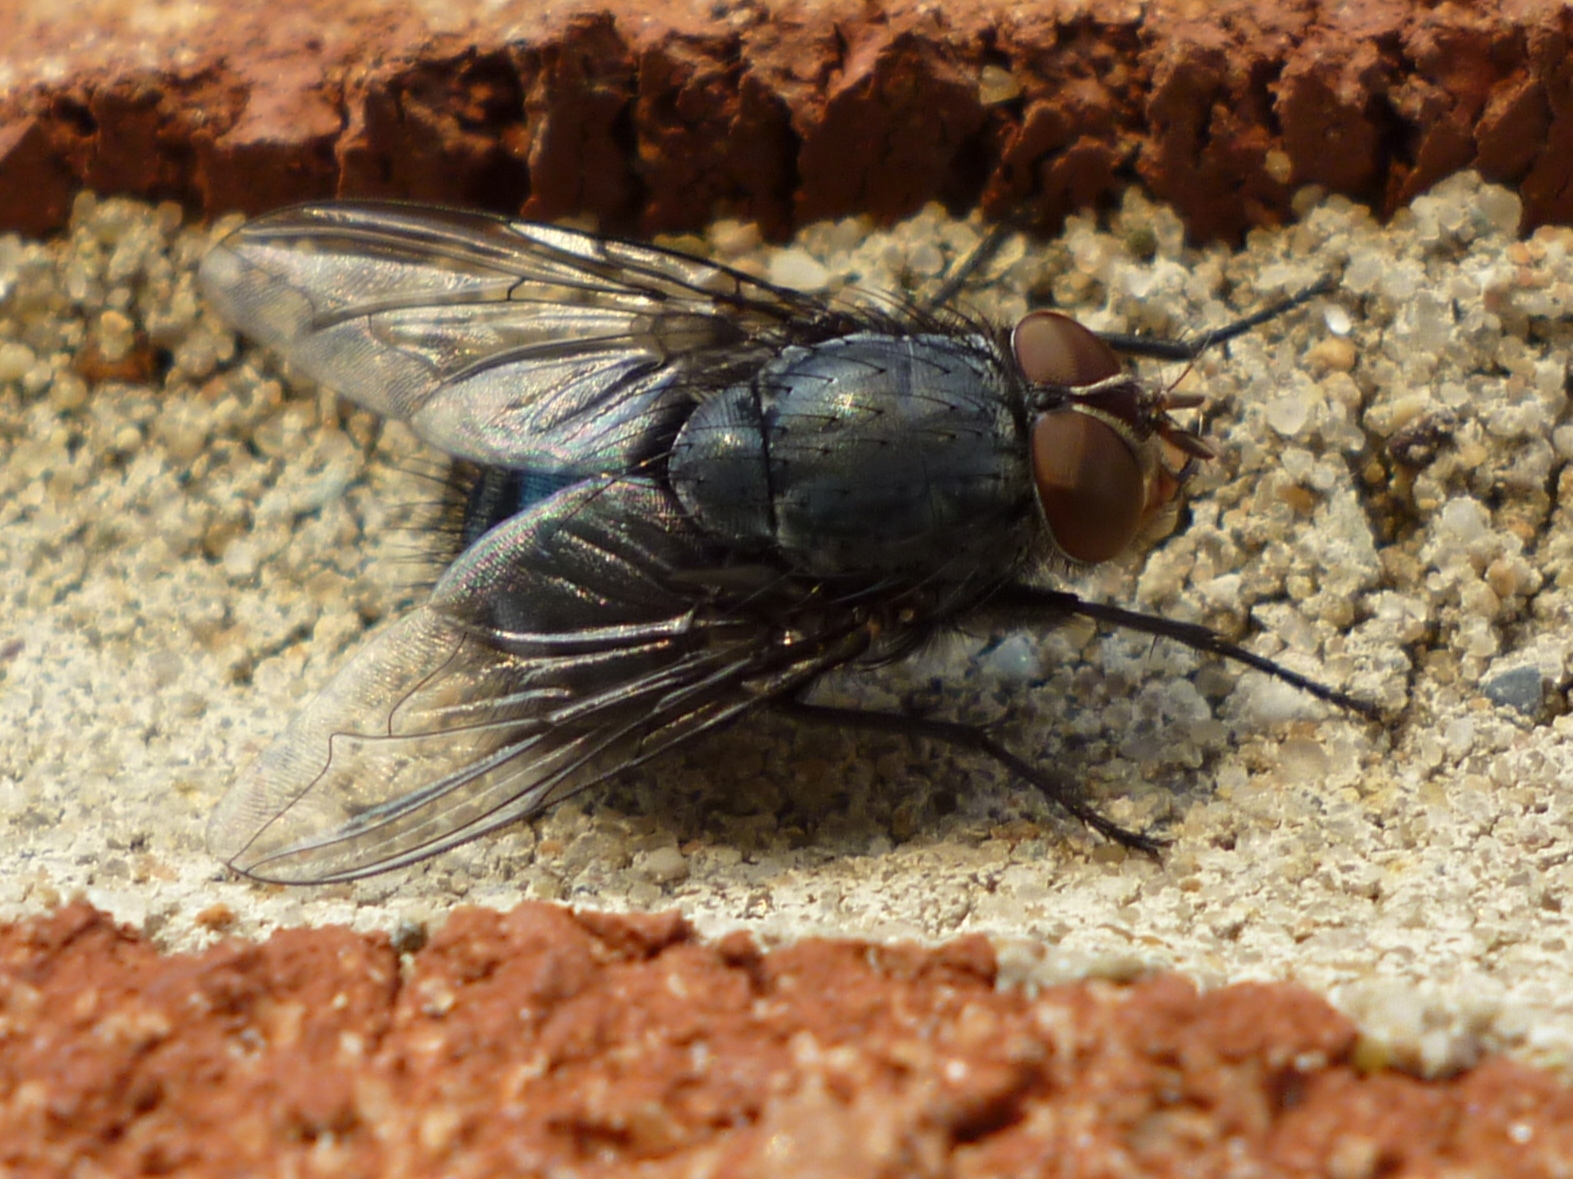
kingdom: Animalia
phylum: Arthropoda
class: Insecta
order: Diptera
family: Calliphoridae
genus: Calliphora
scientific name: Calliphora vicina
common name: Common blow flie
